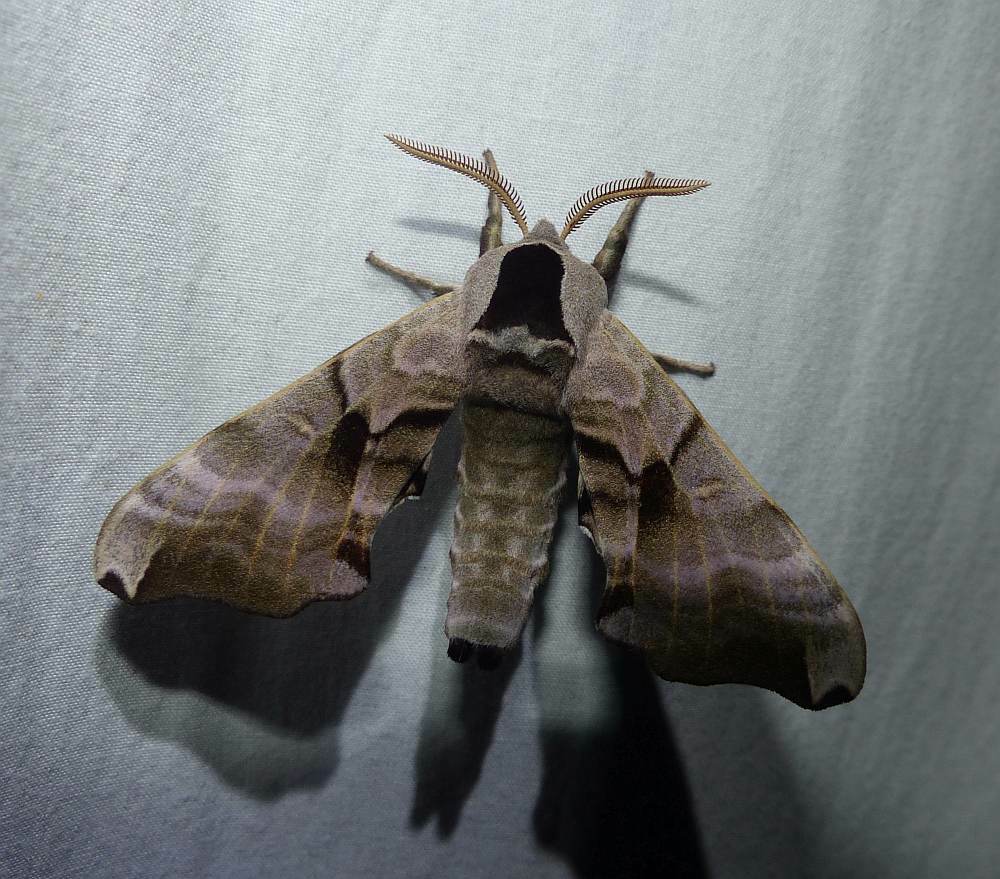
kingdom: Animalia
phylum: Arthropoda
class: Insecta
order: Lepidoptera
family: Sphingidae
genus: Smerinthus
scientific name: Smerinthus jamaicensis
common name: Twin spotted sphinx
